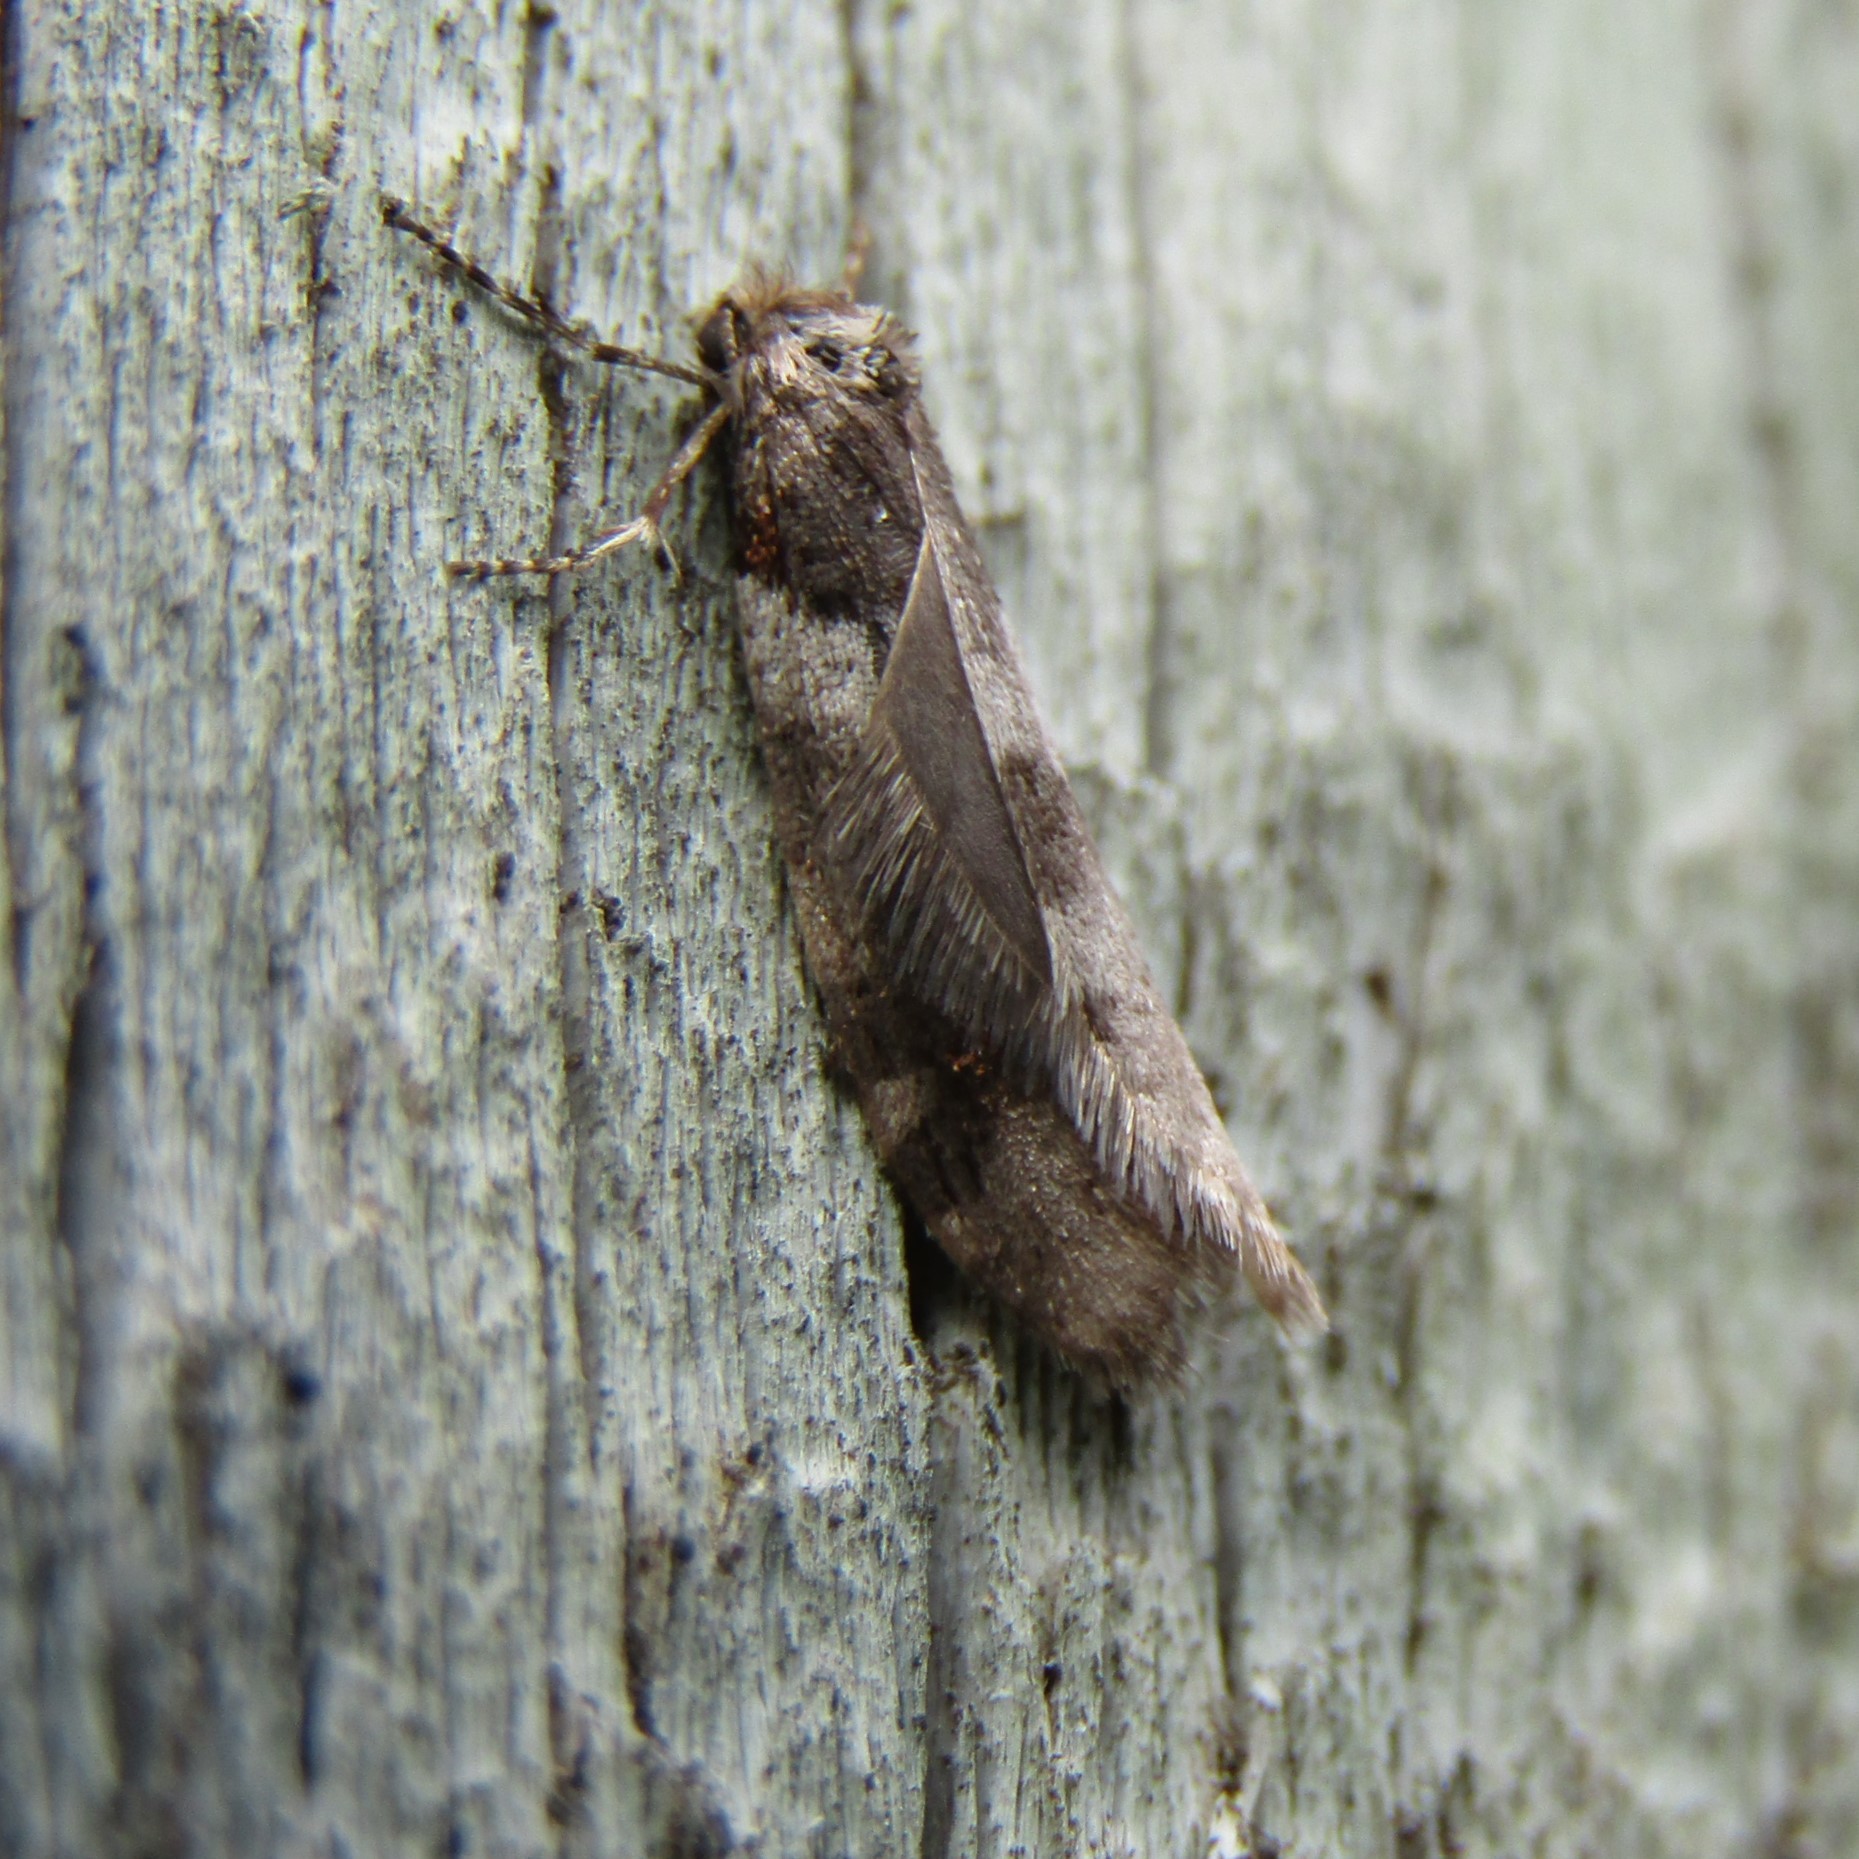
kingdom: Animalia
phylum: Arthropoda
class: Insecta
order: Lepidoptera
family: Psychidae
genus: Lepidoscia
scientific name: Lepidoscia heliochares
